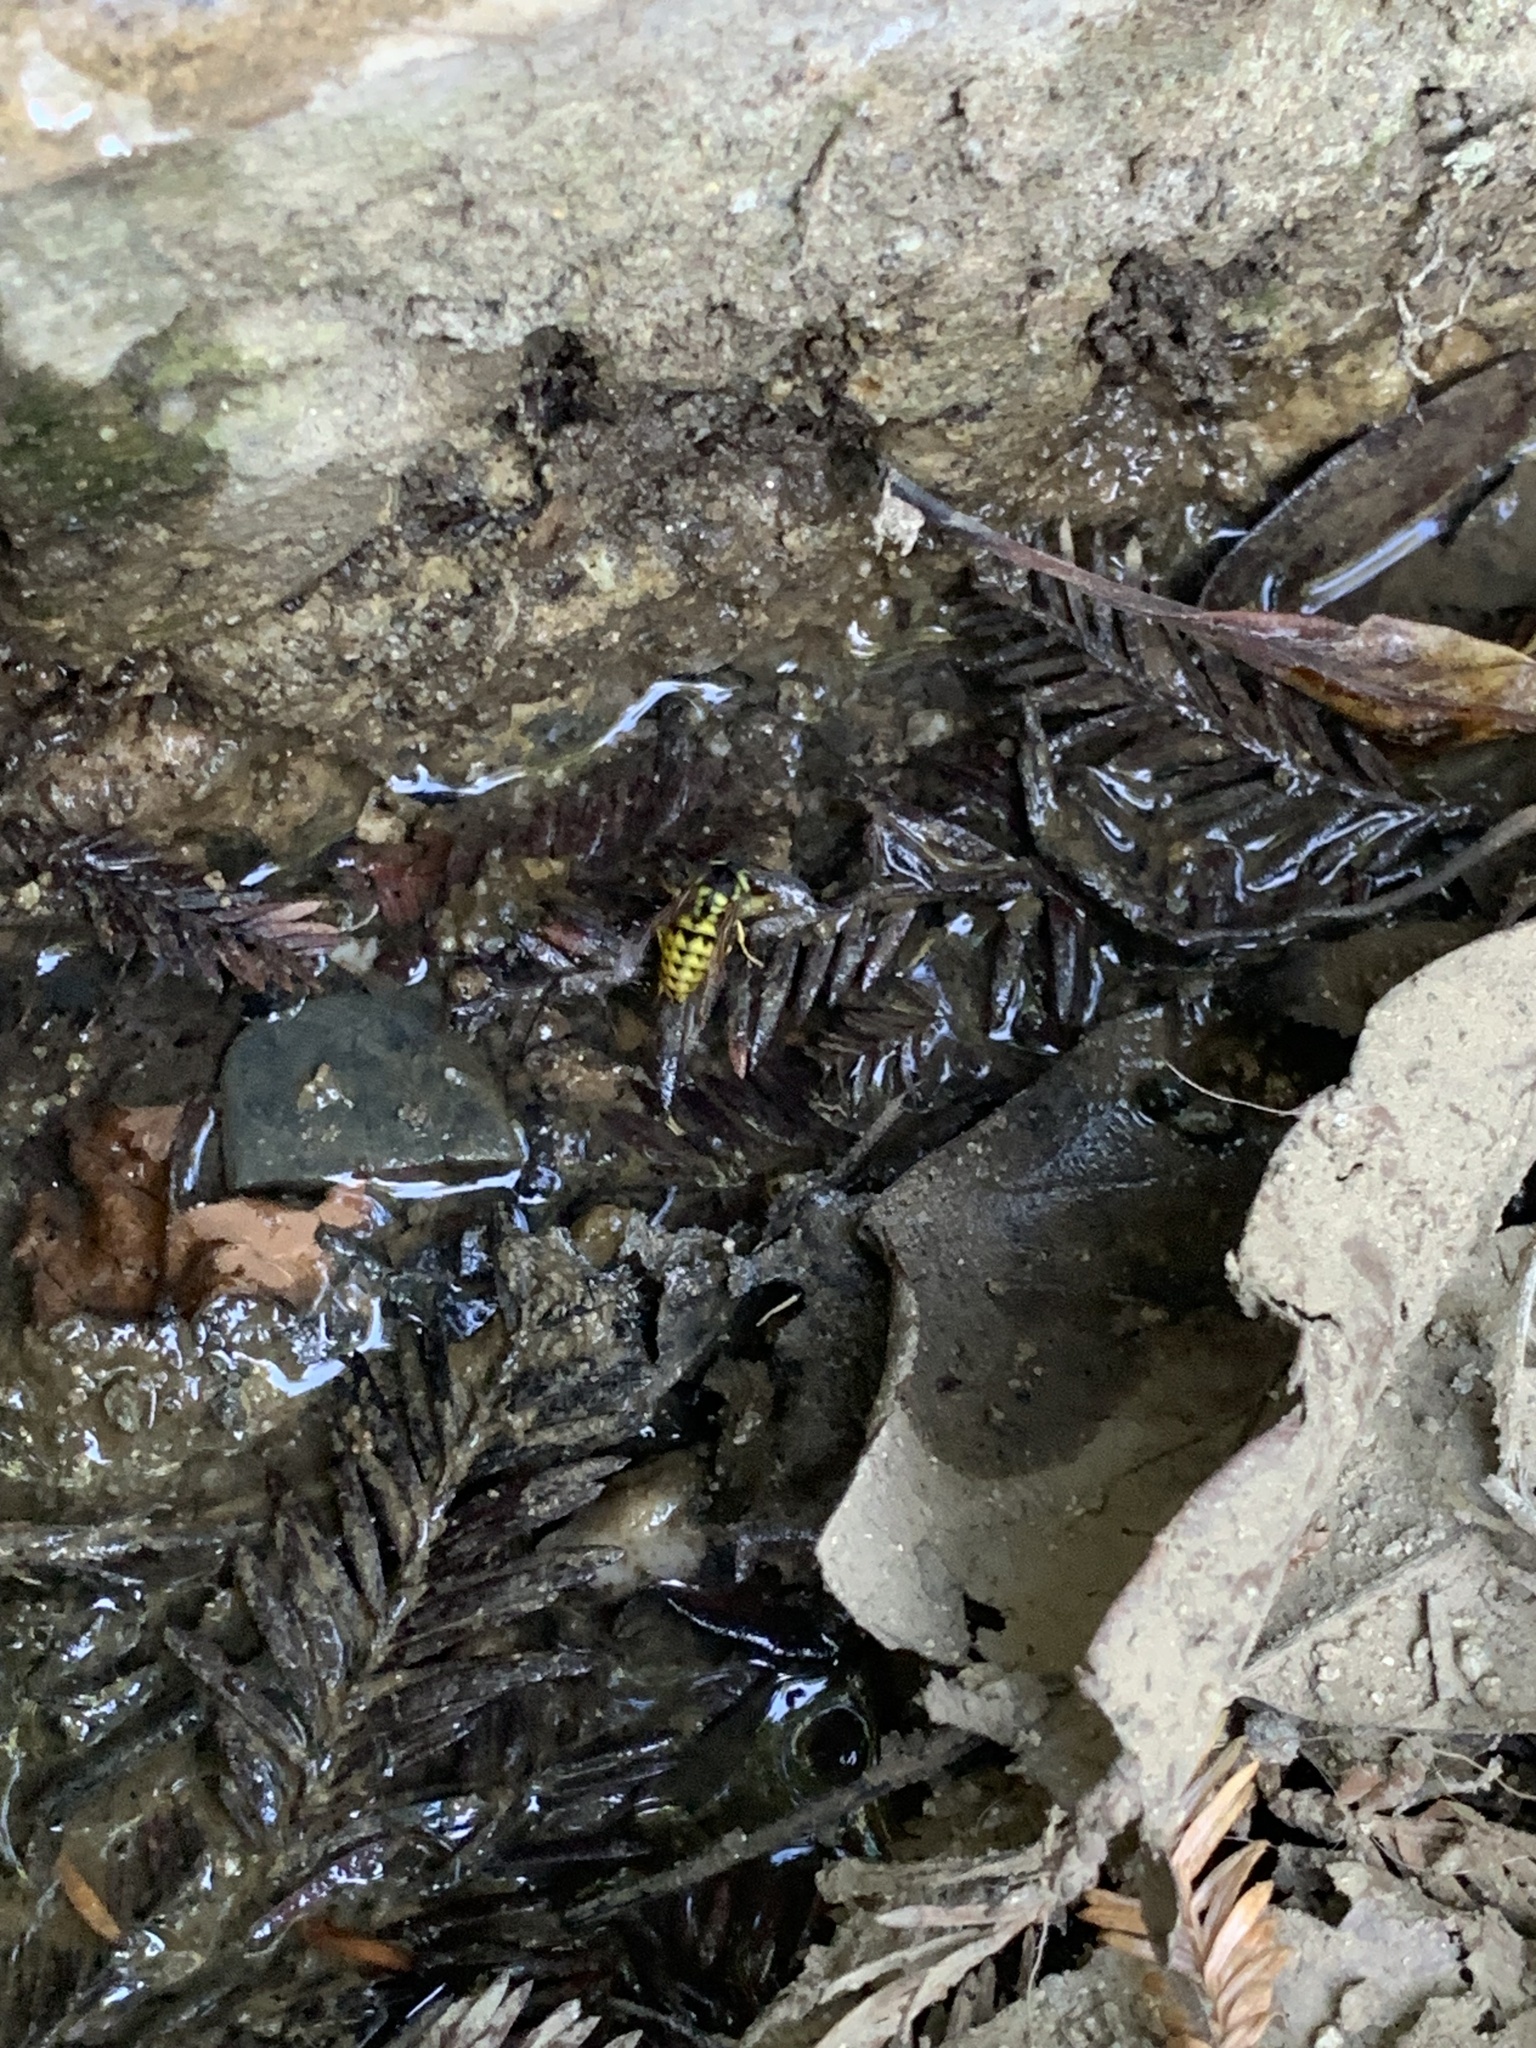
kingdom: Animalia
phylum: Arthropoda
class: Insecta
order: Hymenoptera
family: Vespidae
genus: Vespula
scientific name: Vespula pensylvanica
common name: Western yellowjacket
